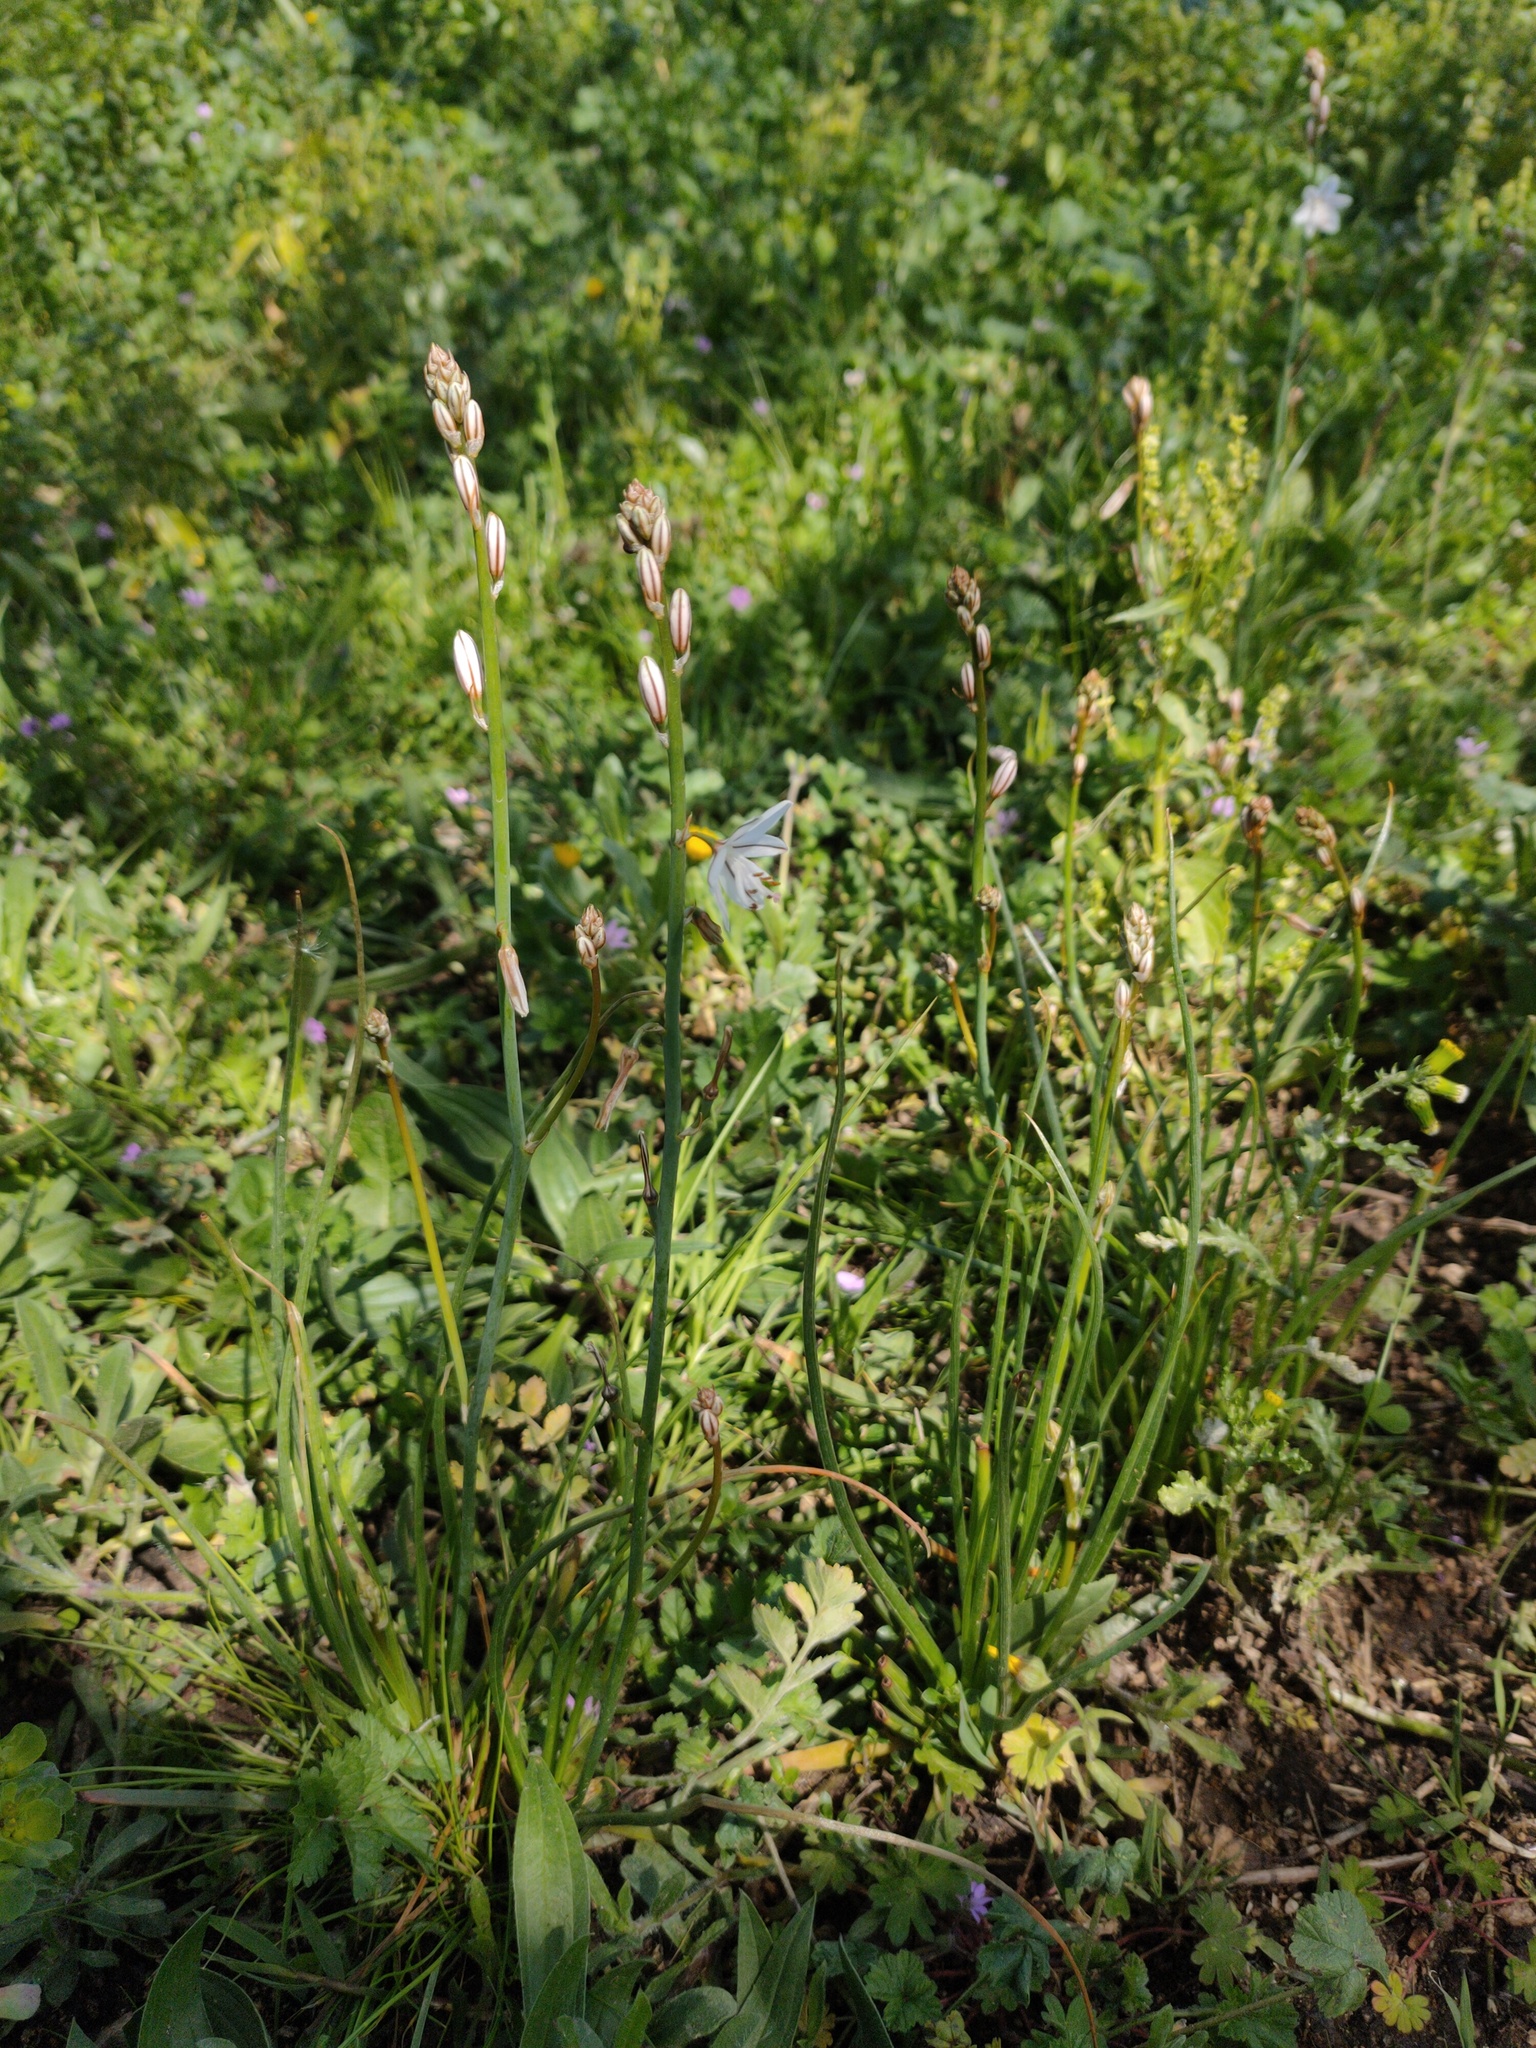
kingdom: Plantae
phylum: Tracheophyta
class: Liliopsida
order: Asparagales
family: Asphodelaceae
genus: Asphodelus
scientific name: Asphodelus fistulosus
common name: Onionweed
